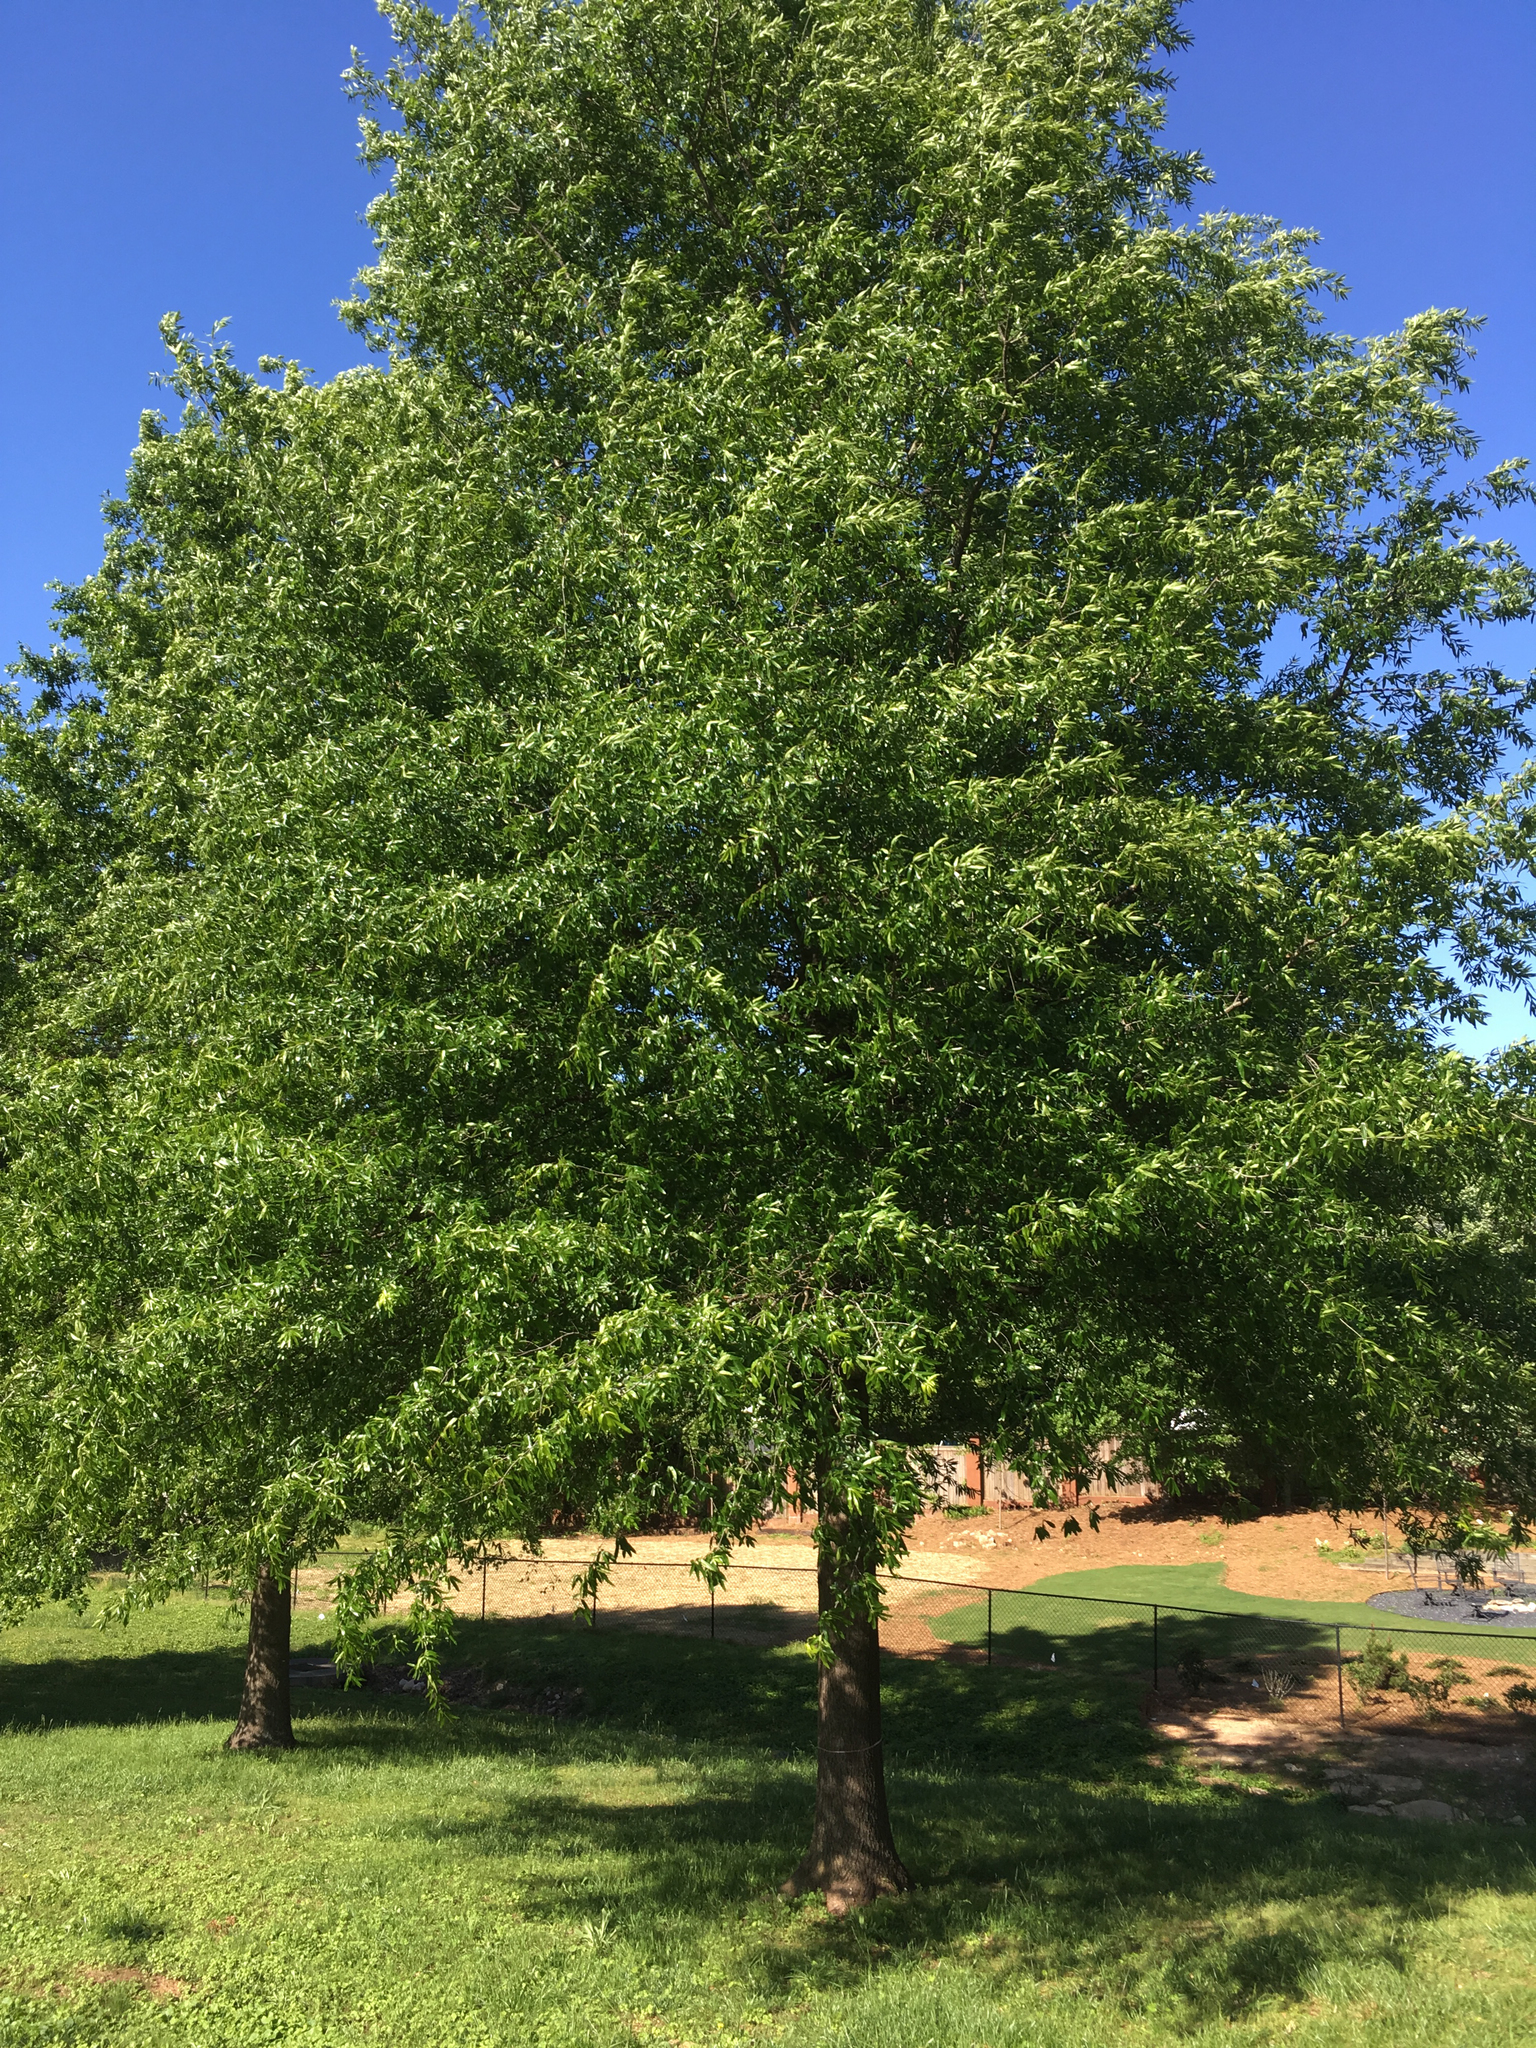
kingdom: Plantae
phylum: Tracheophyta
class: Magnoliopsida
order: Fagales
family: Fagaceae
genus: Quercus
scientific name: Quercus phellos
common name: Willow oak
